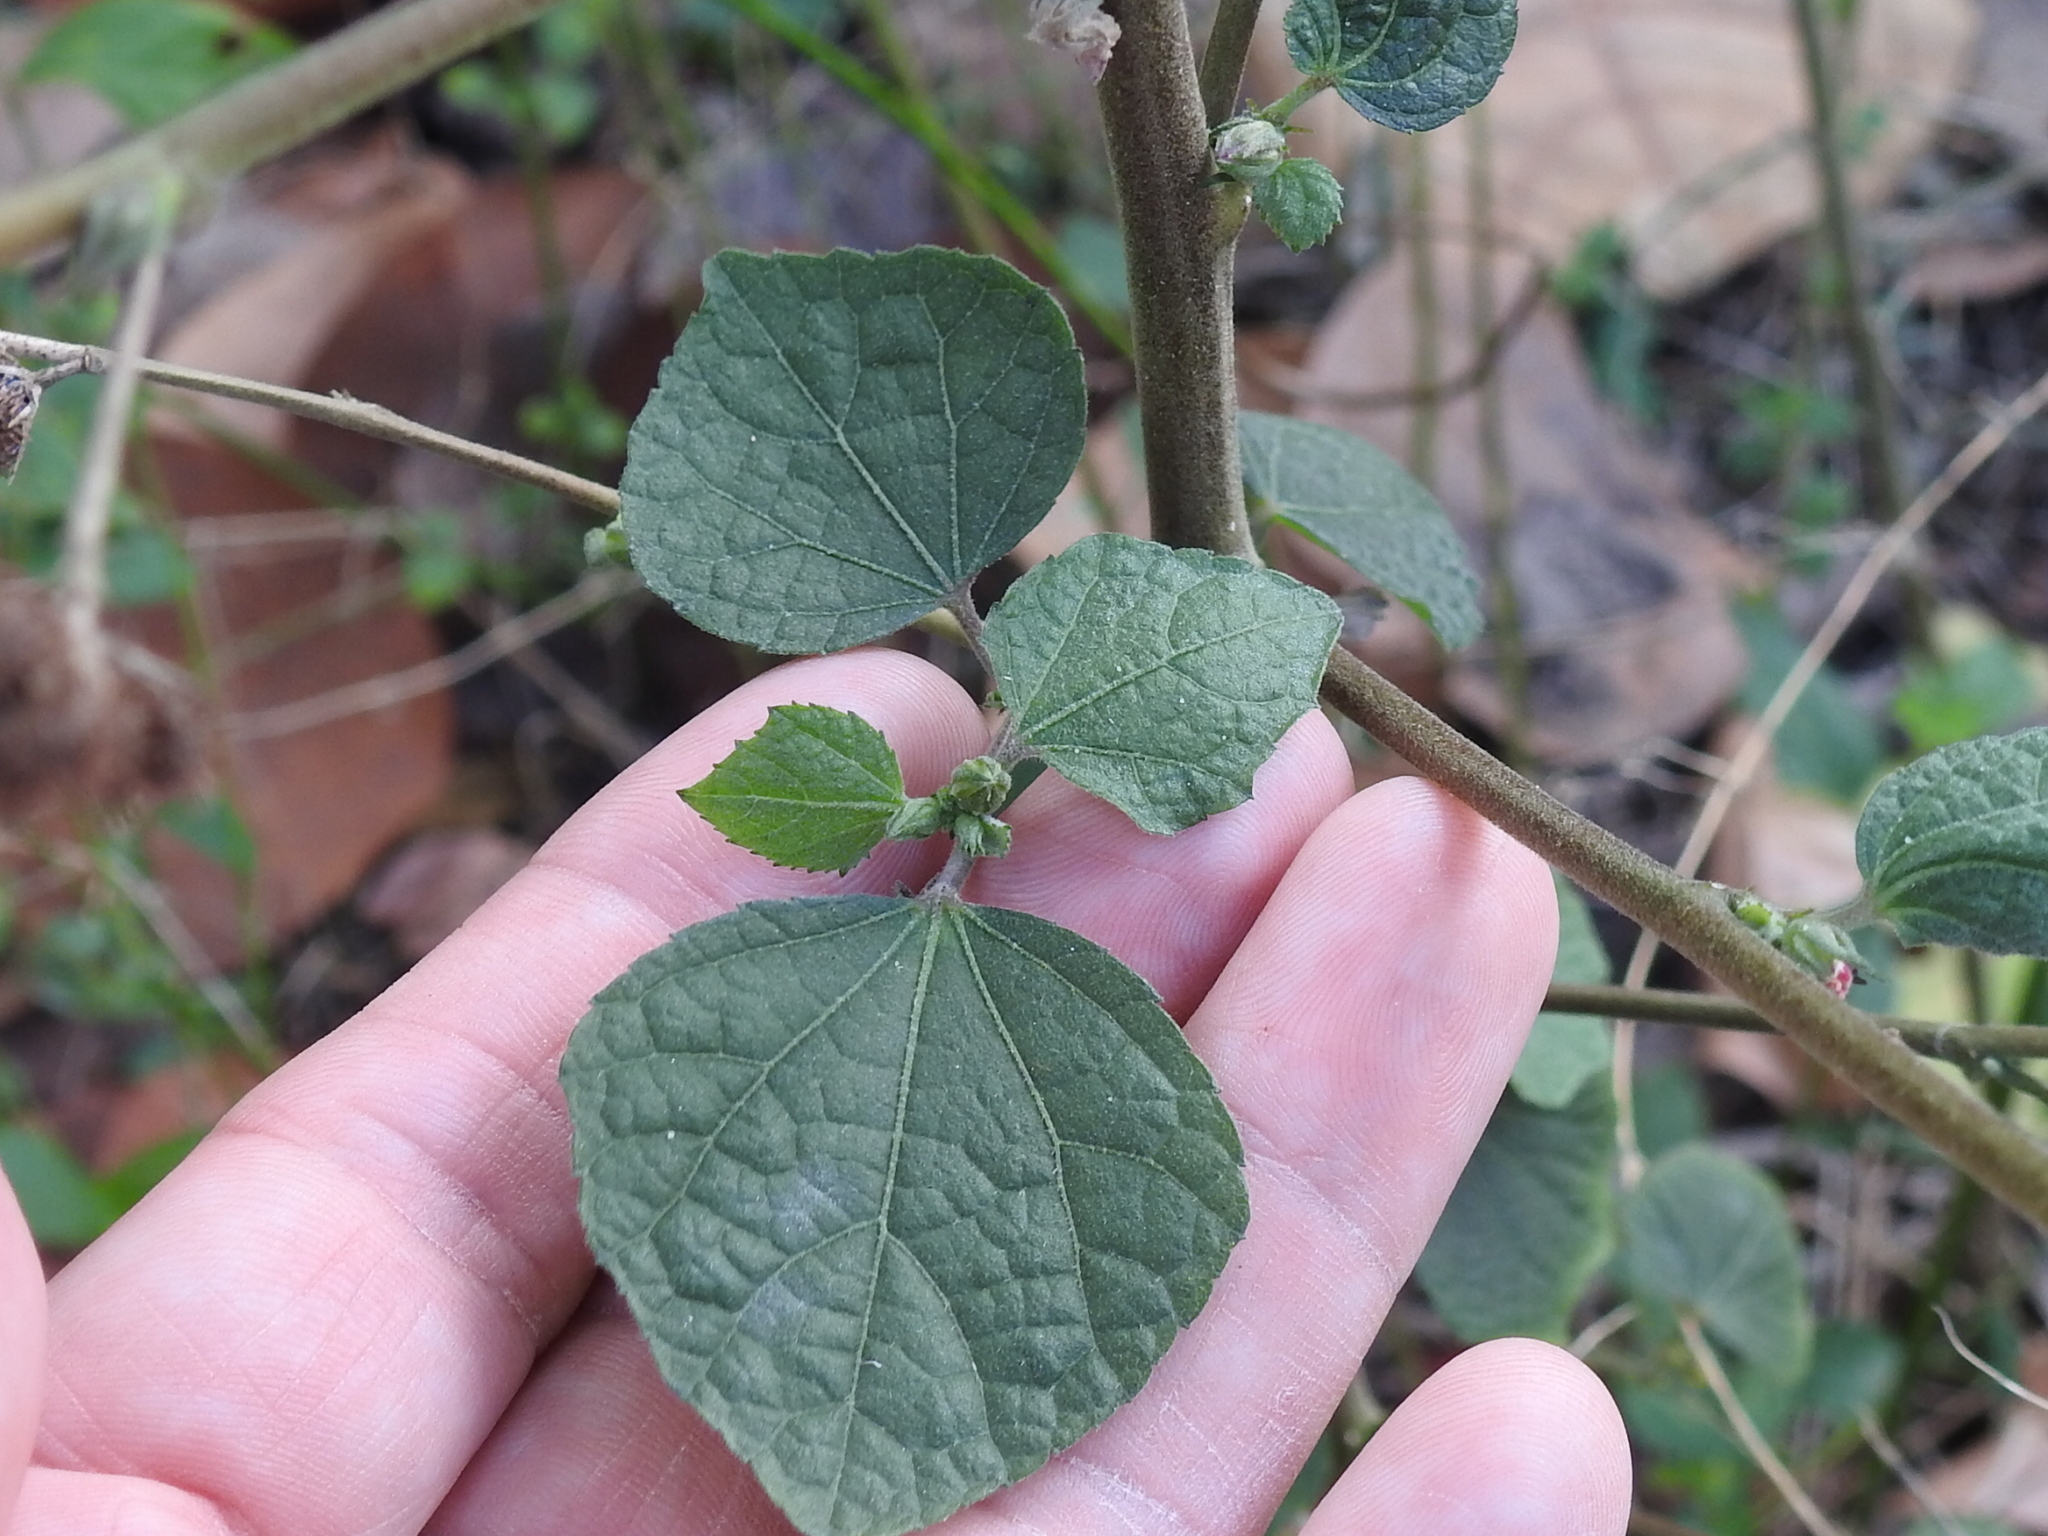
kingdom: Plantae
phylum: Tracheophyta
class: Magnoliopsida
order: Malvales
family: Malvaceae
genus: Urena
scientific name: Urena lobata
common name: Caesarweed
